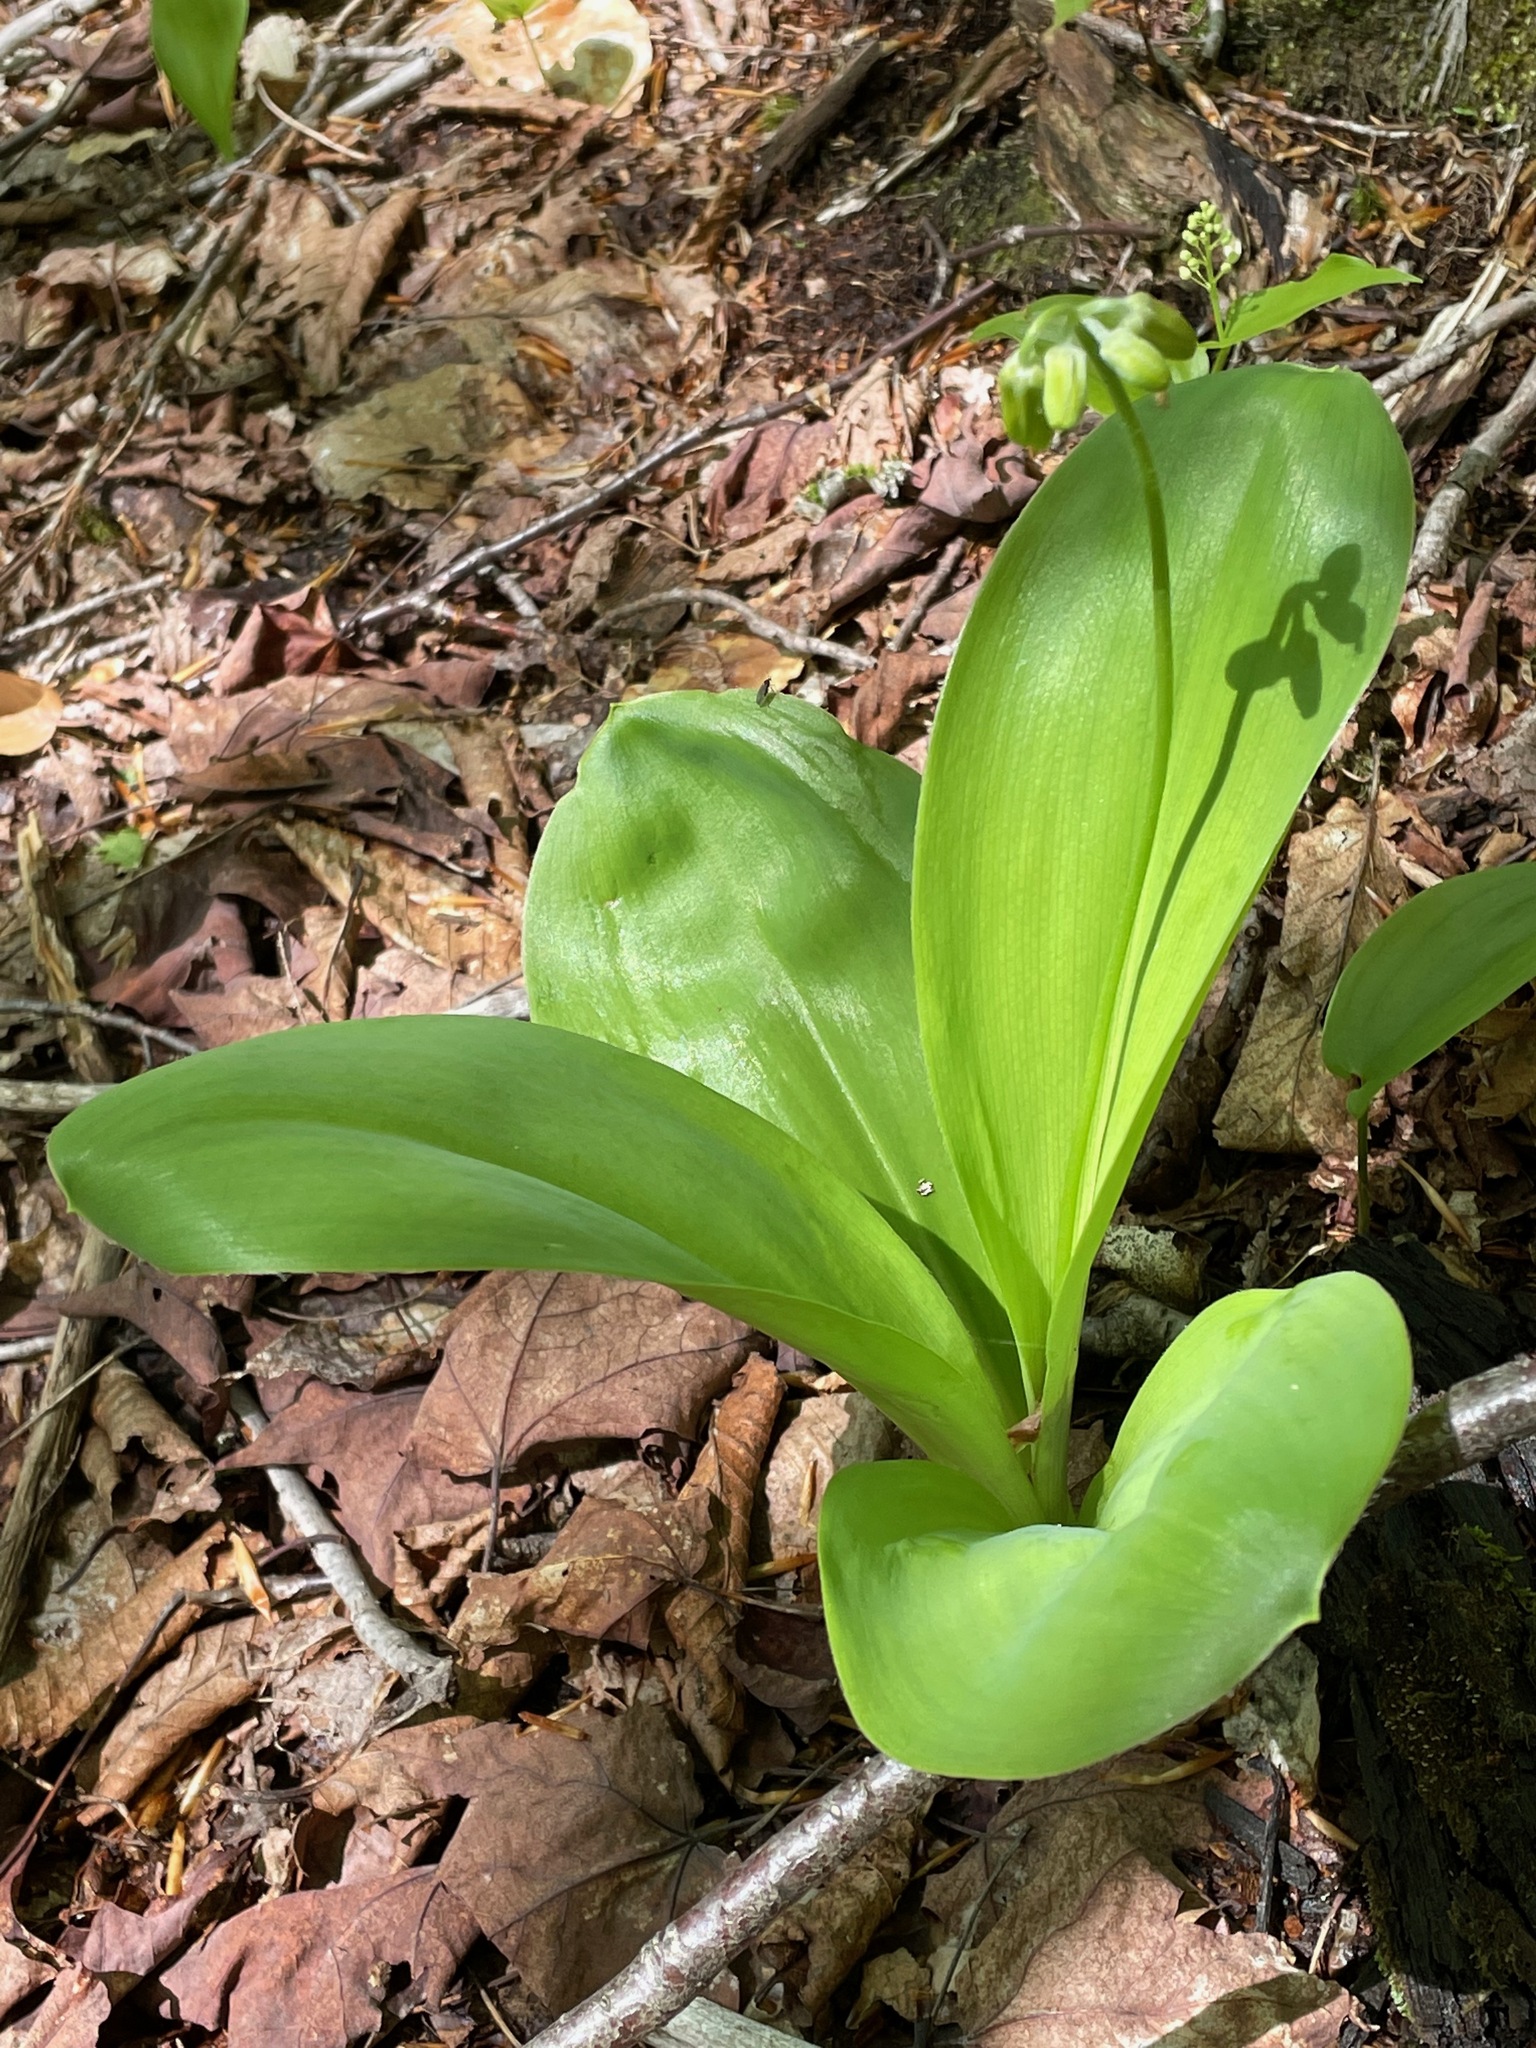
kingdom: Plantae
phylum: Tracheophyta
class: Liliopsida
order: Liliales
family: Liliaceae
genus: Clintonia
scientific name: Clintonia borealis
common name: Yellow clintonia
